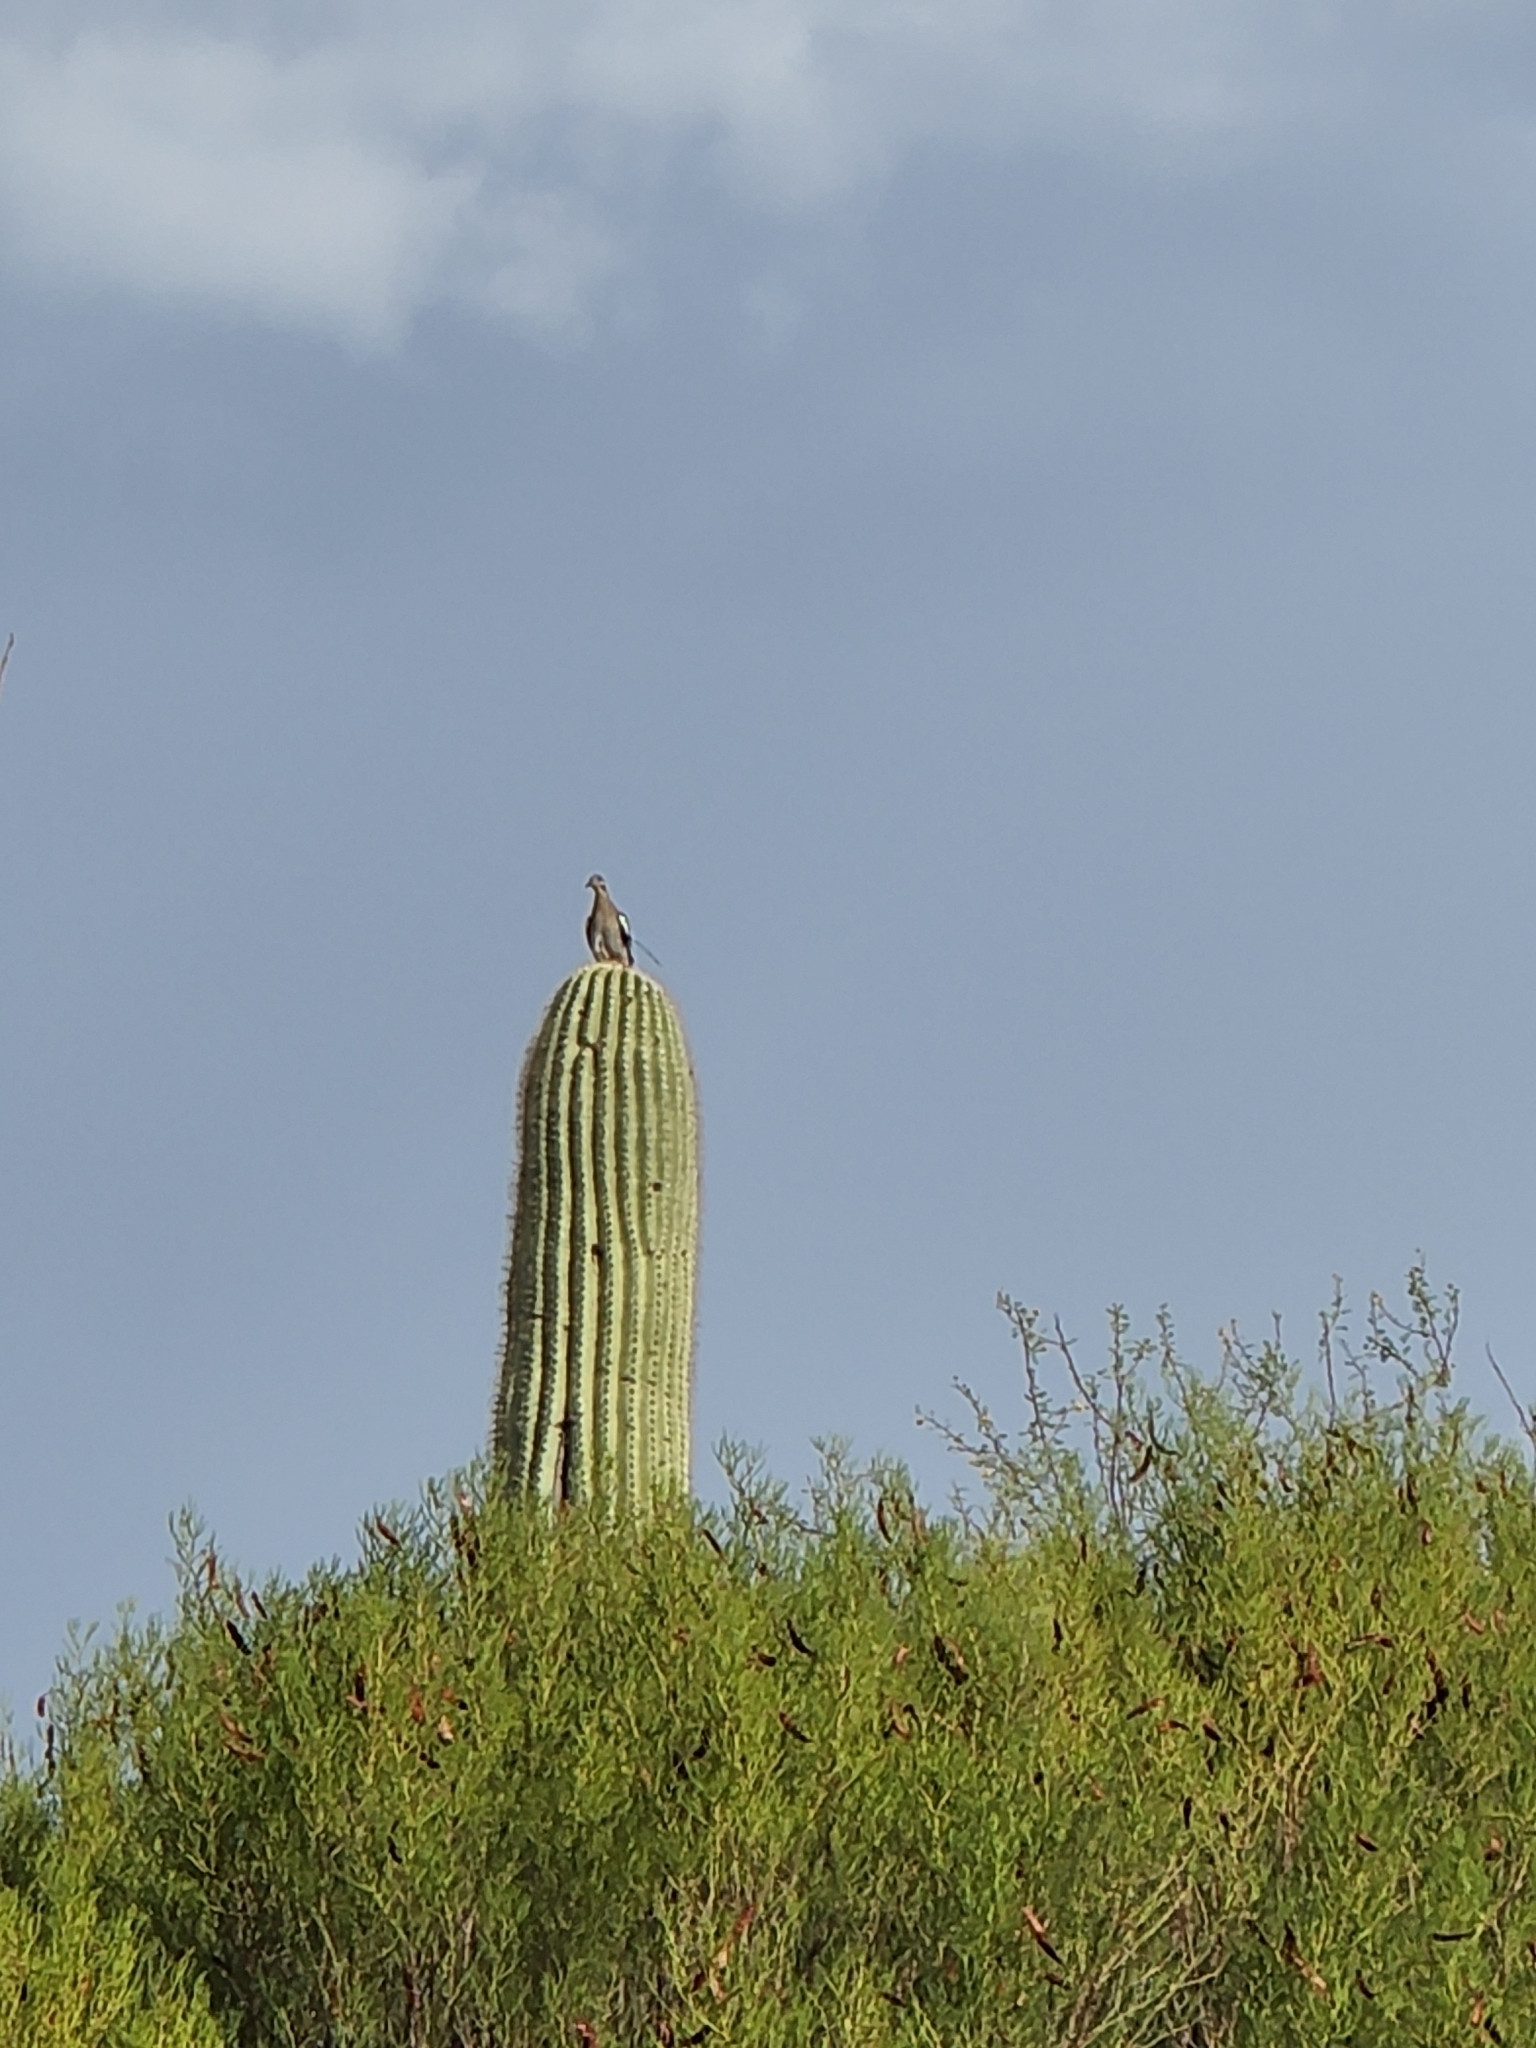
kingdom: Animalia
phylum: Chordata
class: Aves
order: Columbiformes
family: Columbidae
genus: Zenaida
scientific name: Zenaida asiatica
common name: White-winged dove
